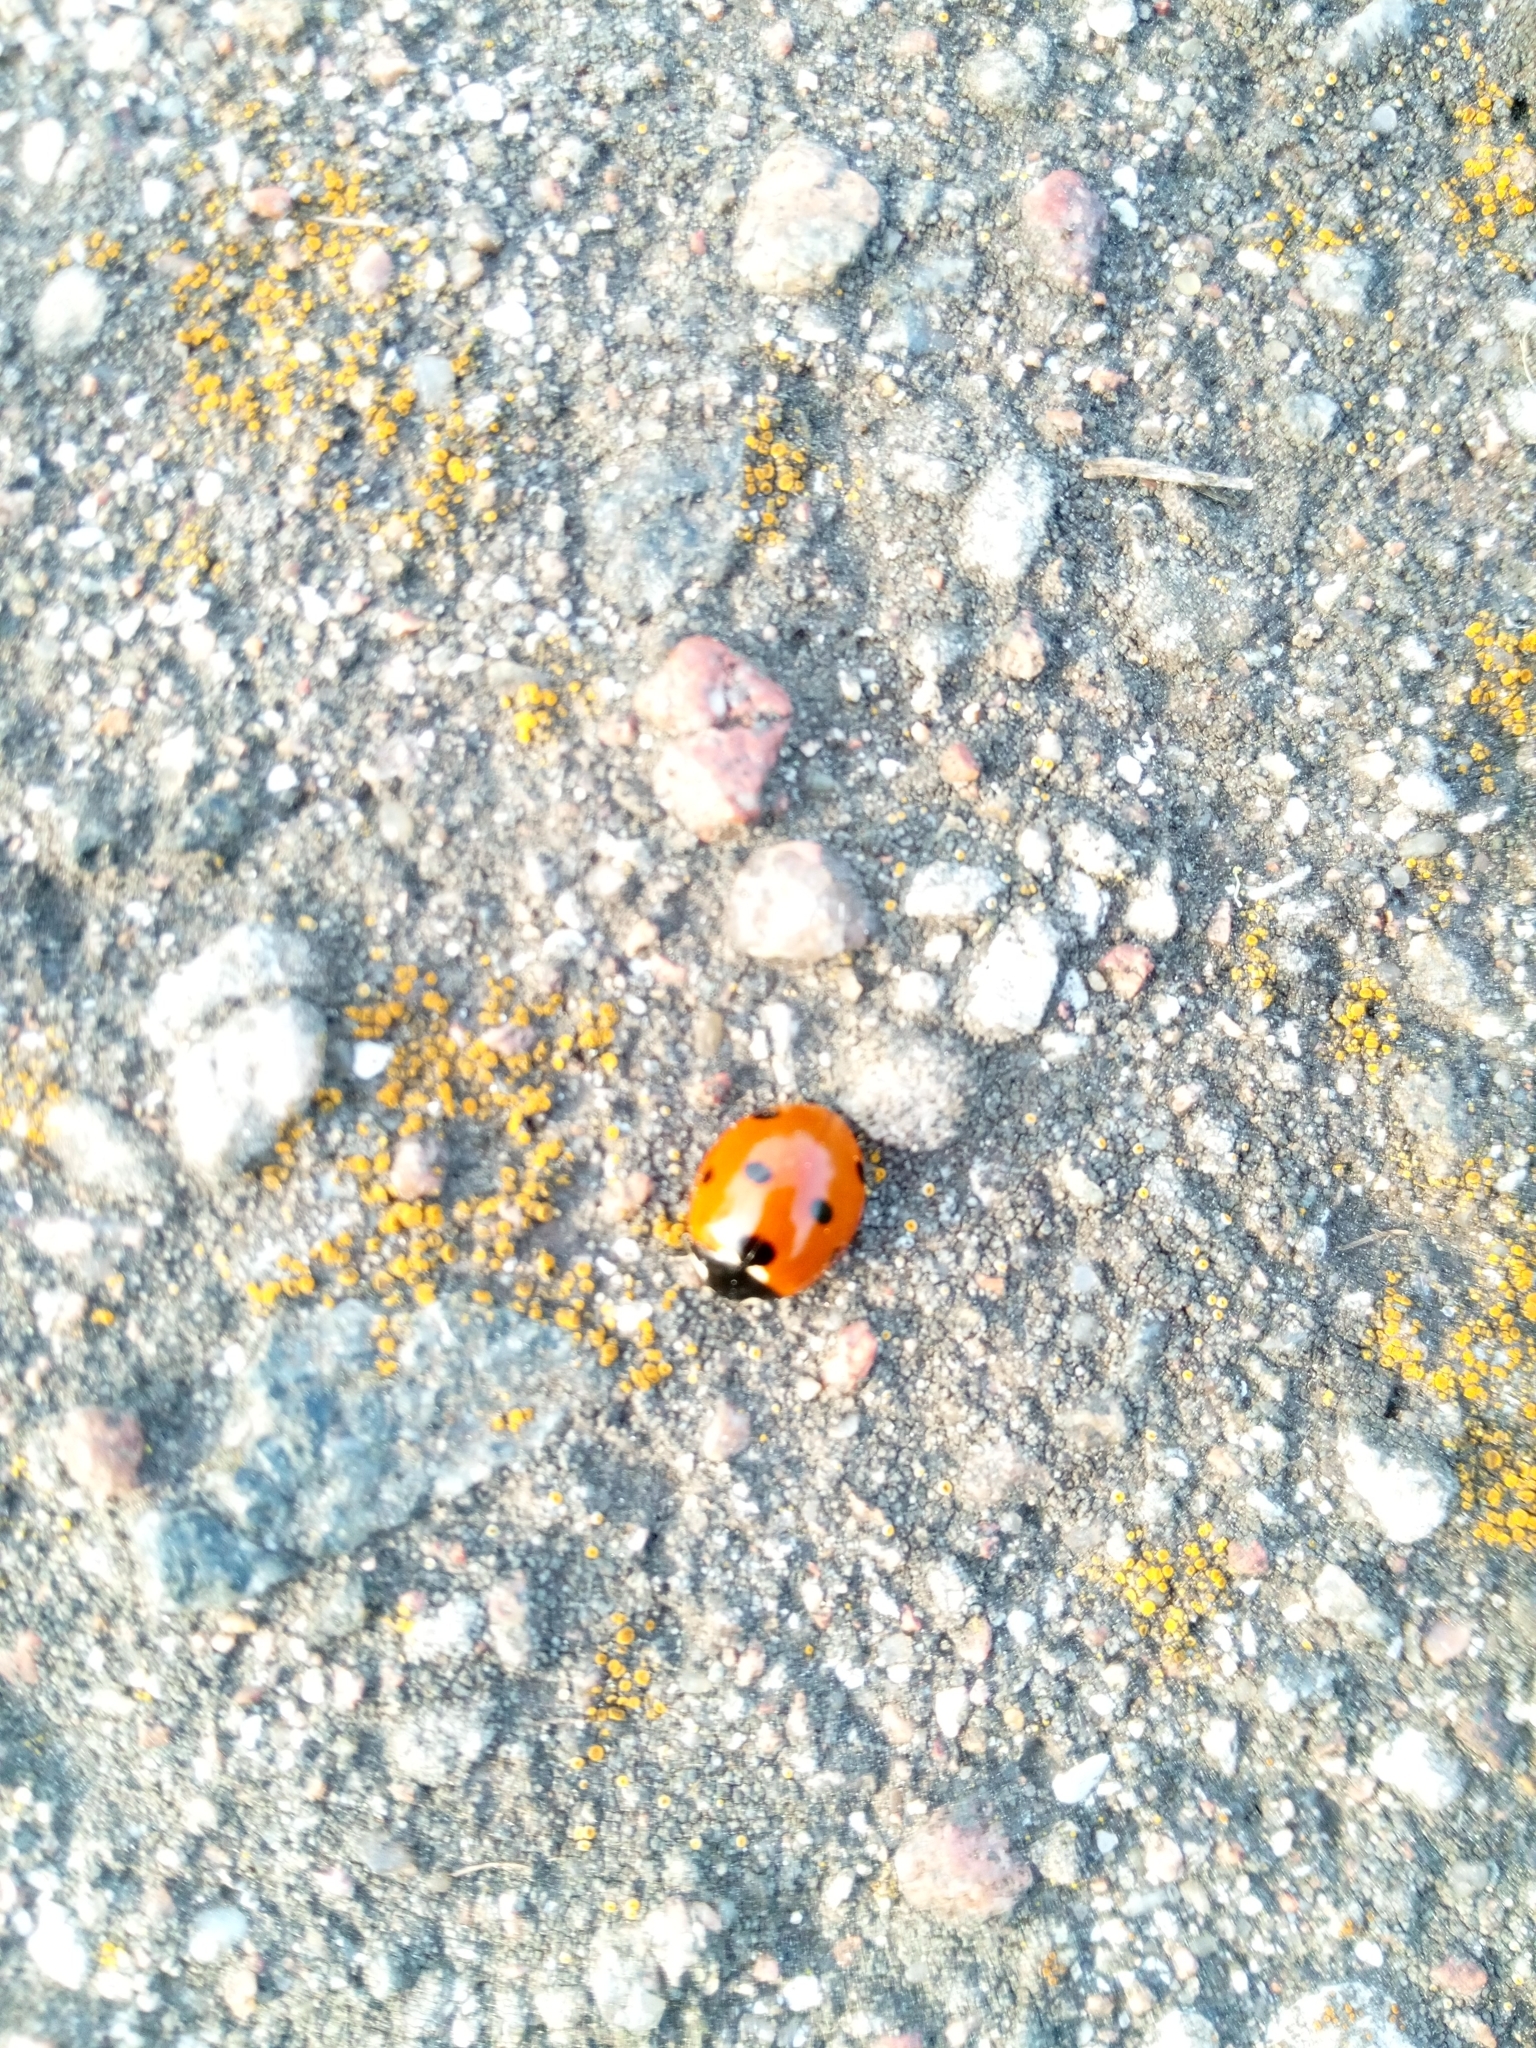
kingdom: Animalia
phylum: Arthropoda
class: Insecta
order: Coleoptera
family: Coccinellidae
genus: Coccinella
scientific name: Coccinella septempunctata
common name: Sevenspotted lady beetle
